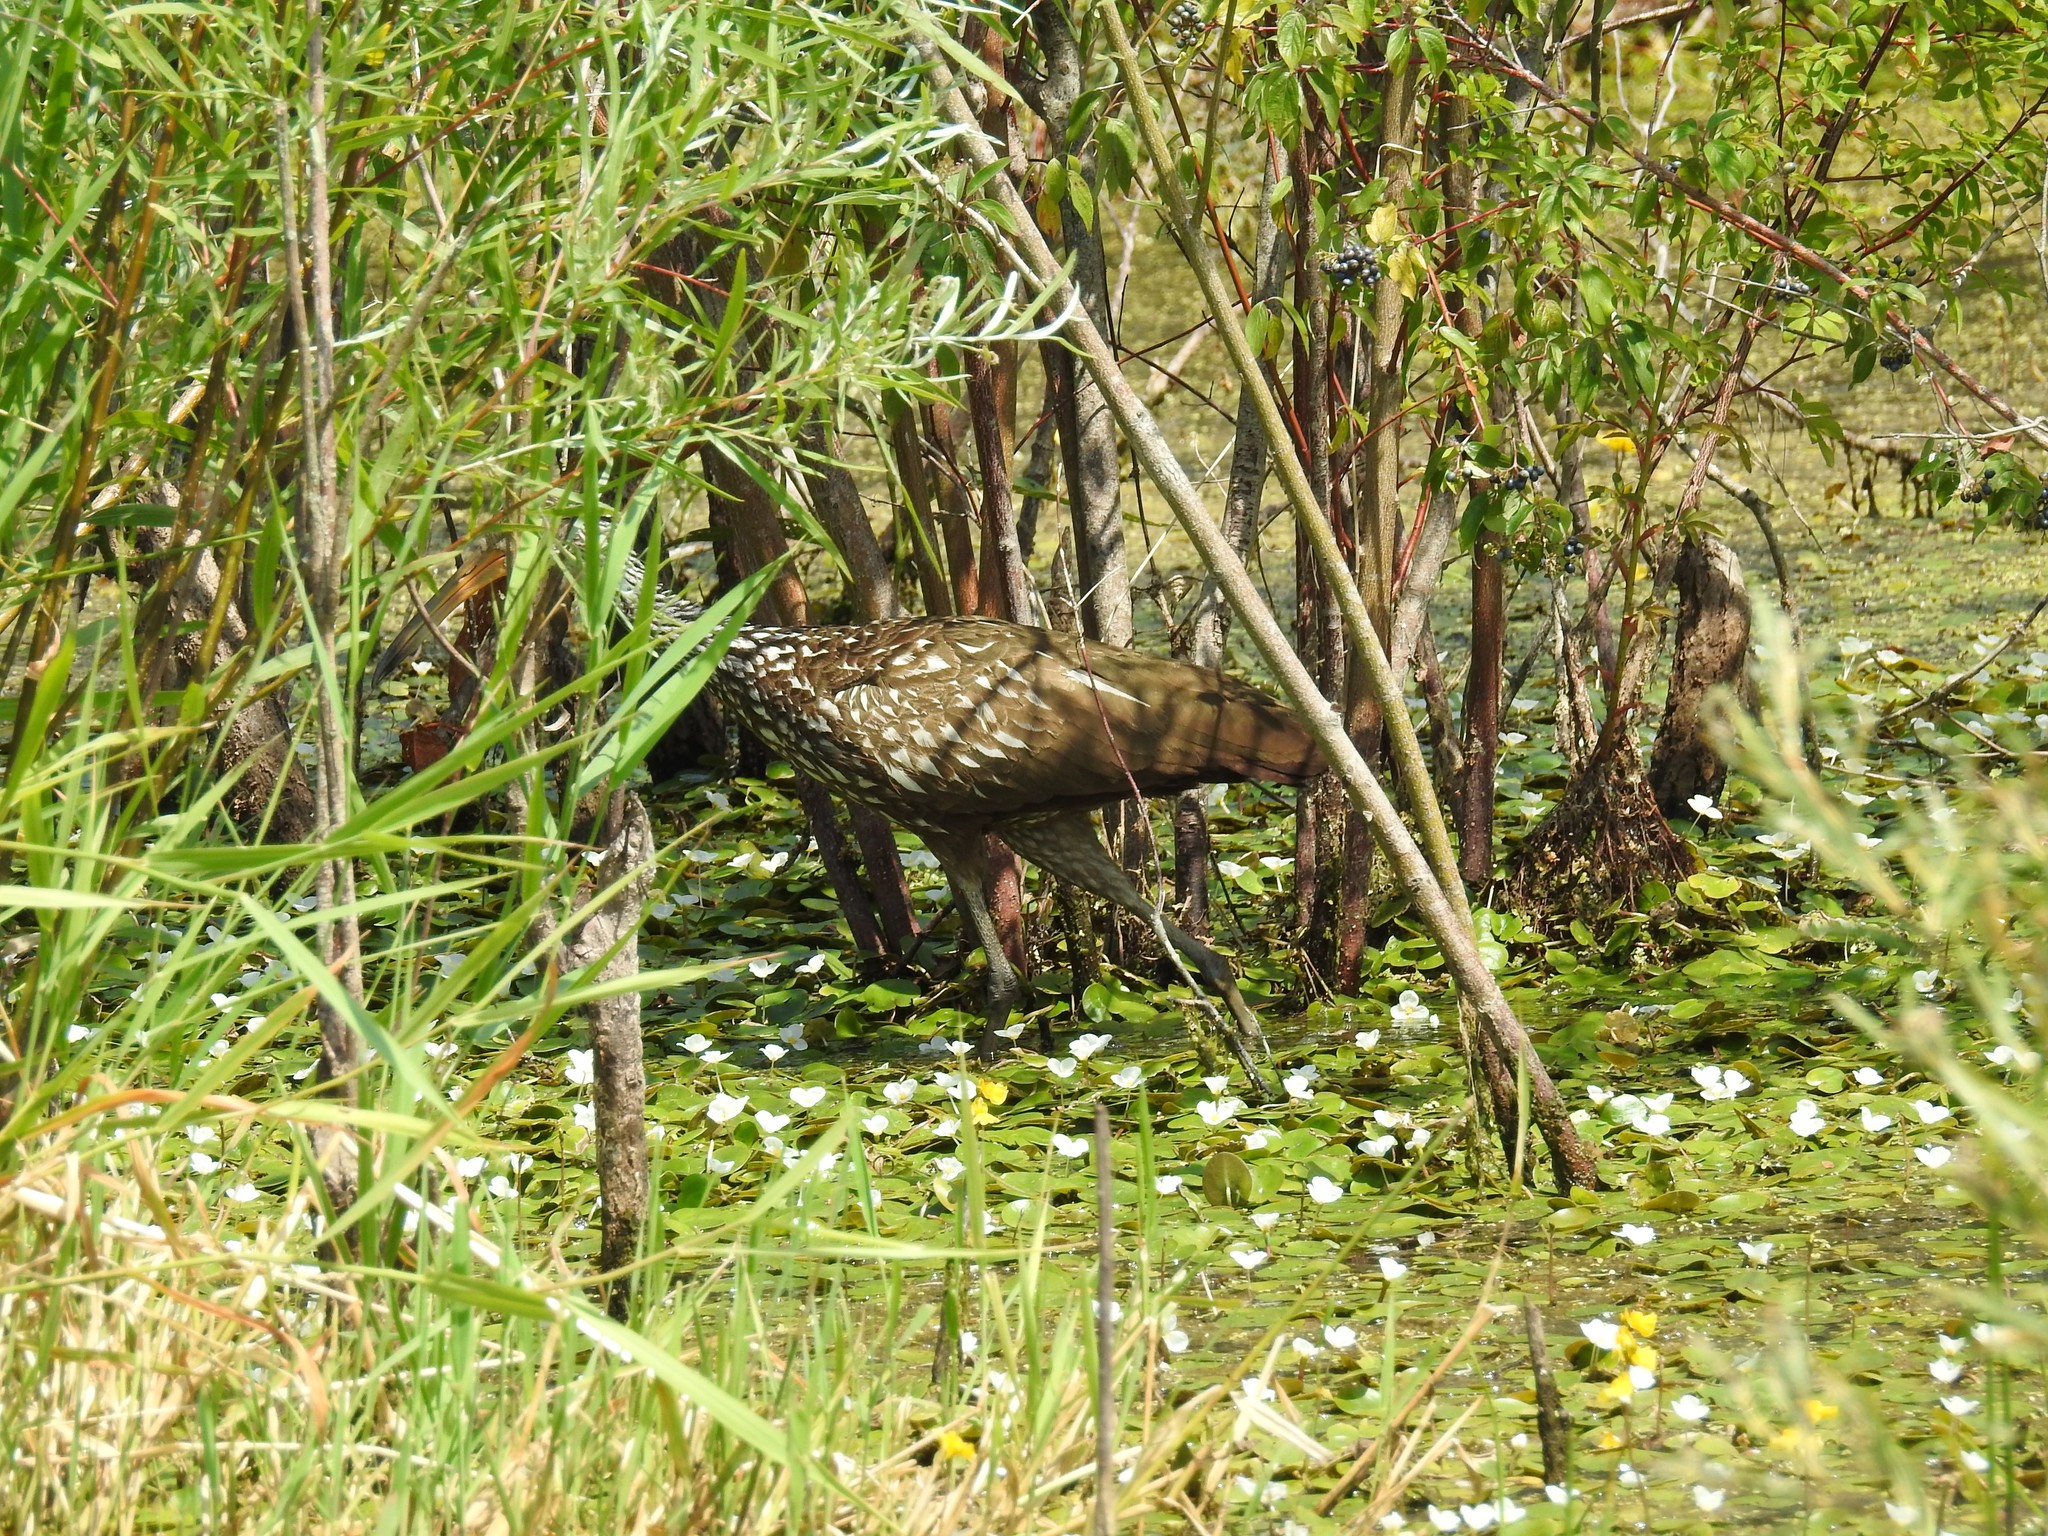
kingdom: Animalia
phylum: Chordata
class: Aves
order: Gruiformes
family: Aramidae
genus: Aramus
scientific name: Aramus guarauna
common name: Limpkin
